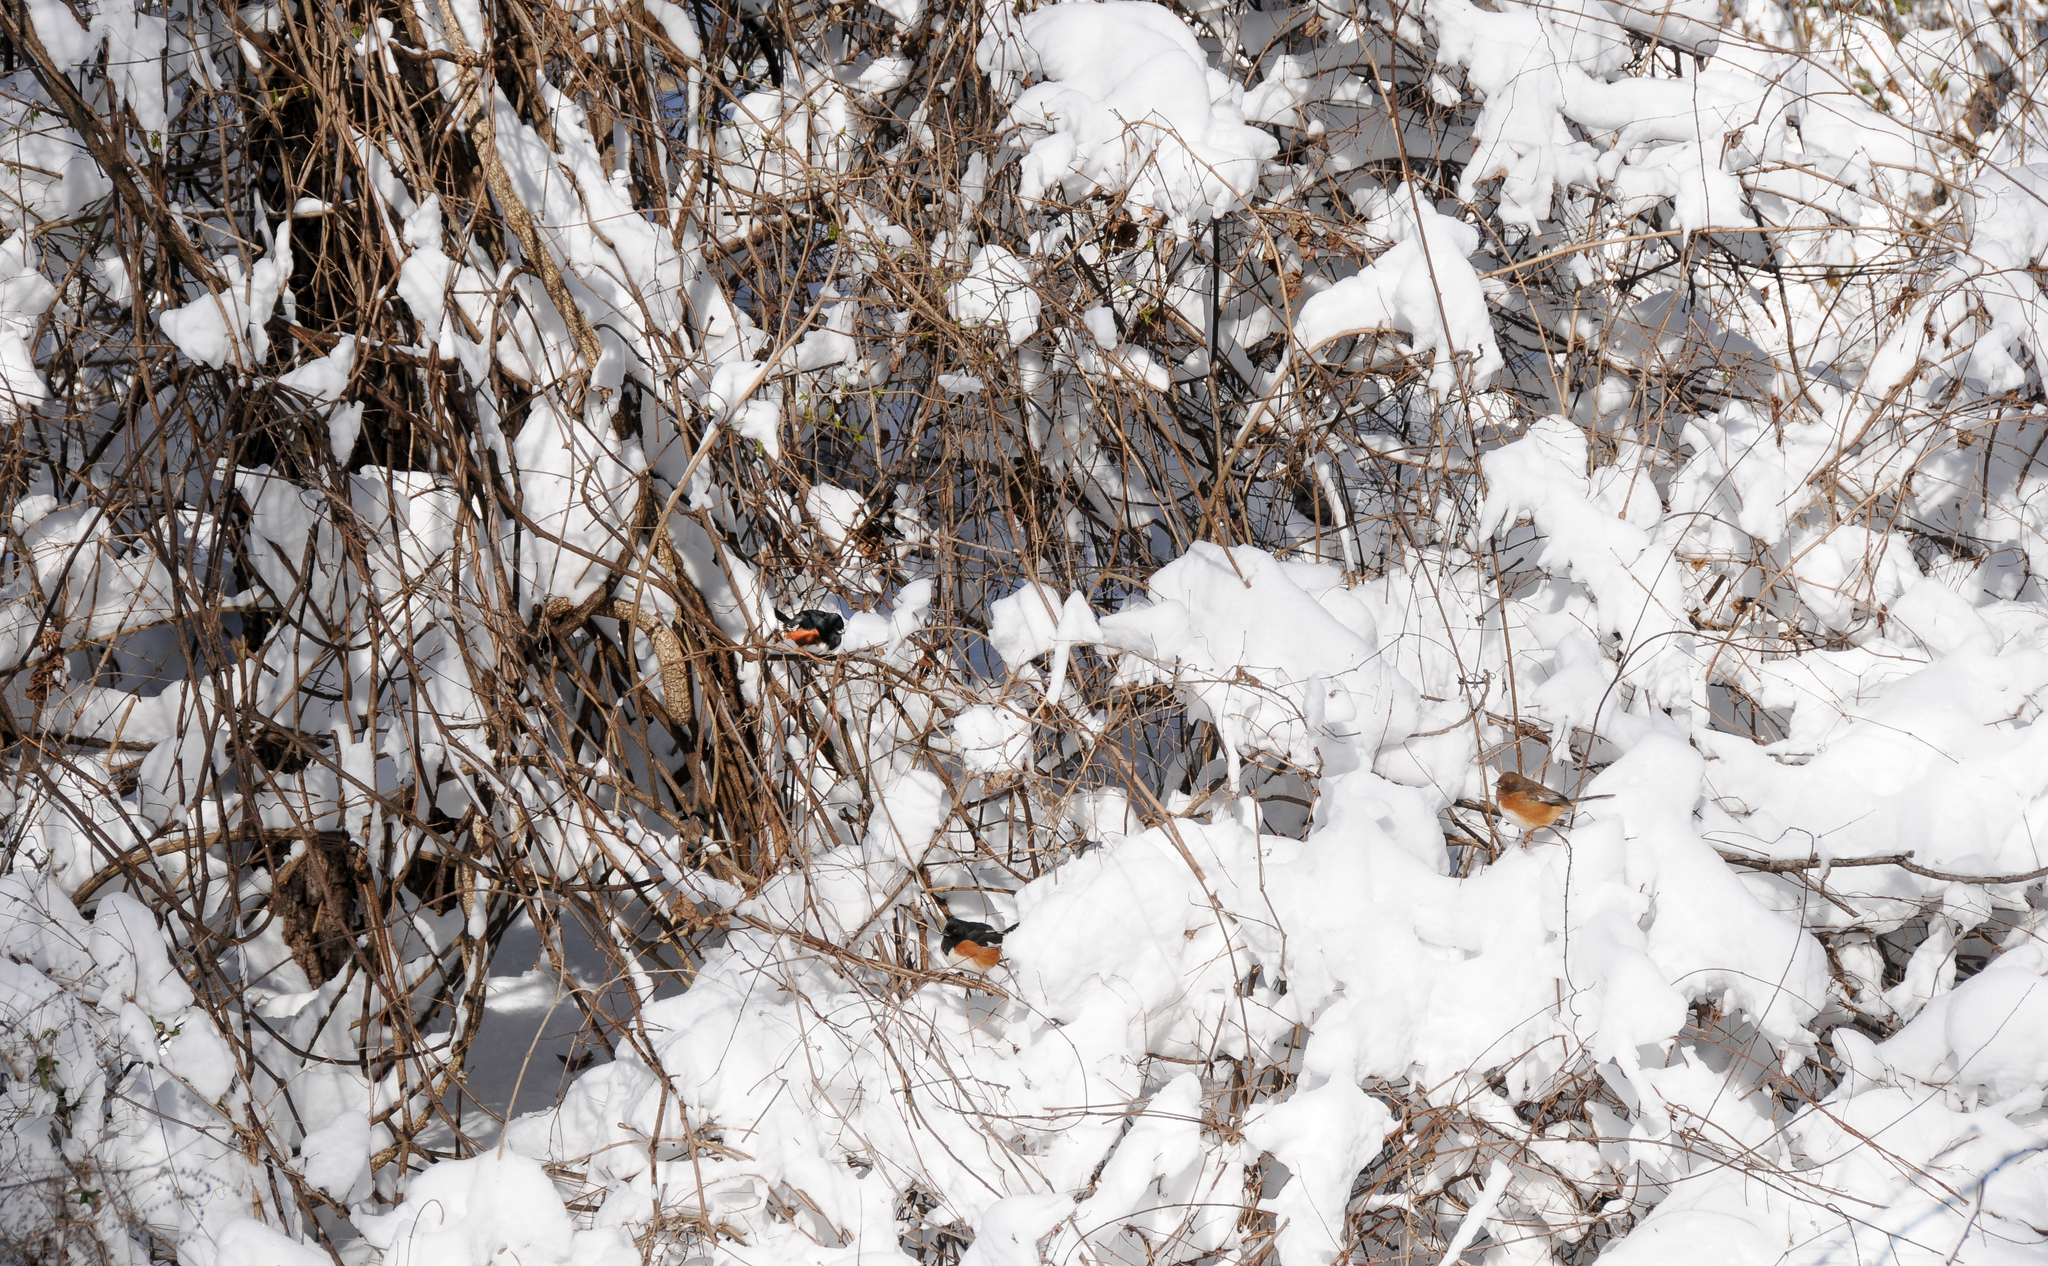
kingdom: Animalia
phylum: Chordata
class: Aves
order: Passeriformes
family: Passerellidae
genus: Pipilo
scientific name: Pipilo erythrophthalmus
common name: Eastern towhee
